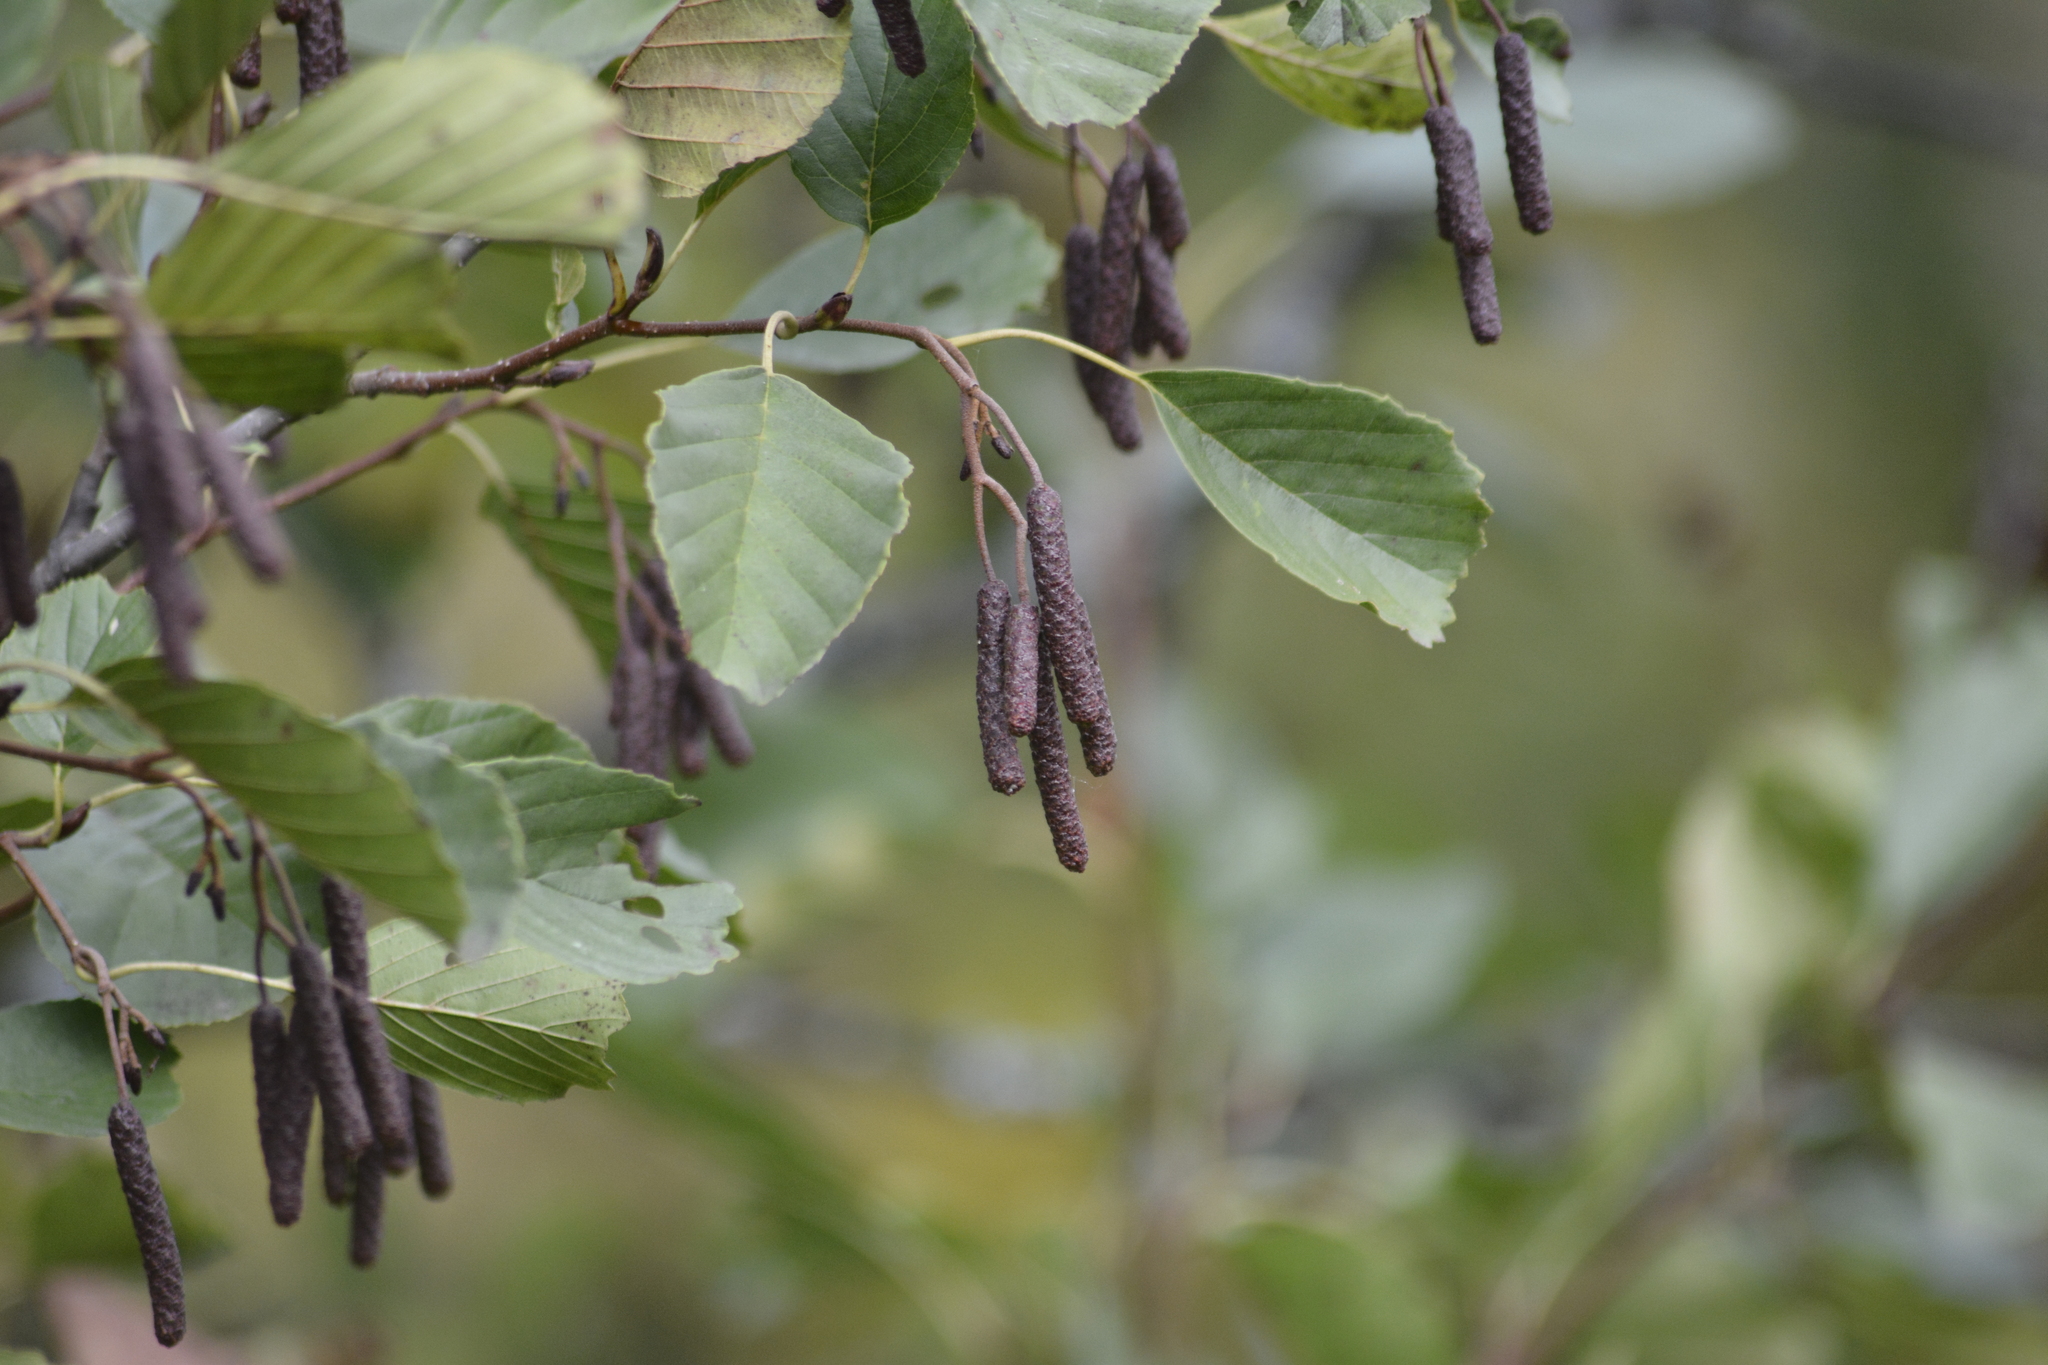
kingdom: Plantae
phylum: Tracheophyta
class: Magnoliopsida
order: Fagales
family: Betulaceae
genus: Alnus
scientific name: Alnus glutinosa
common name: Black alder
